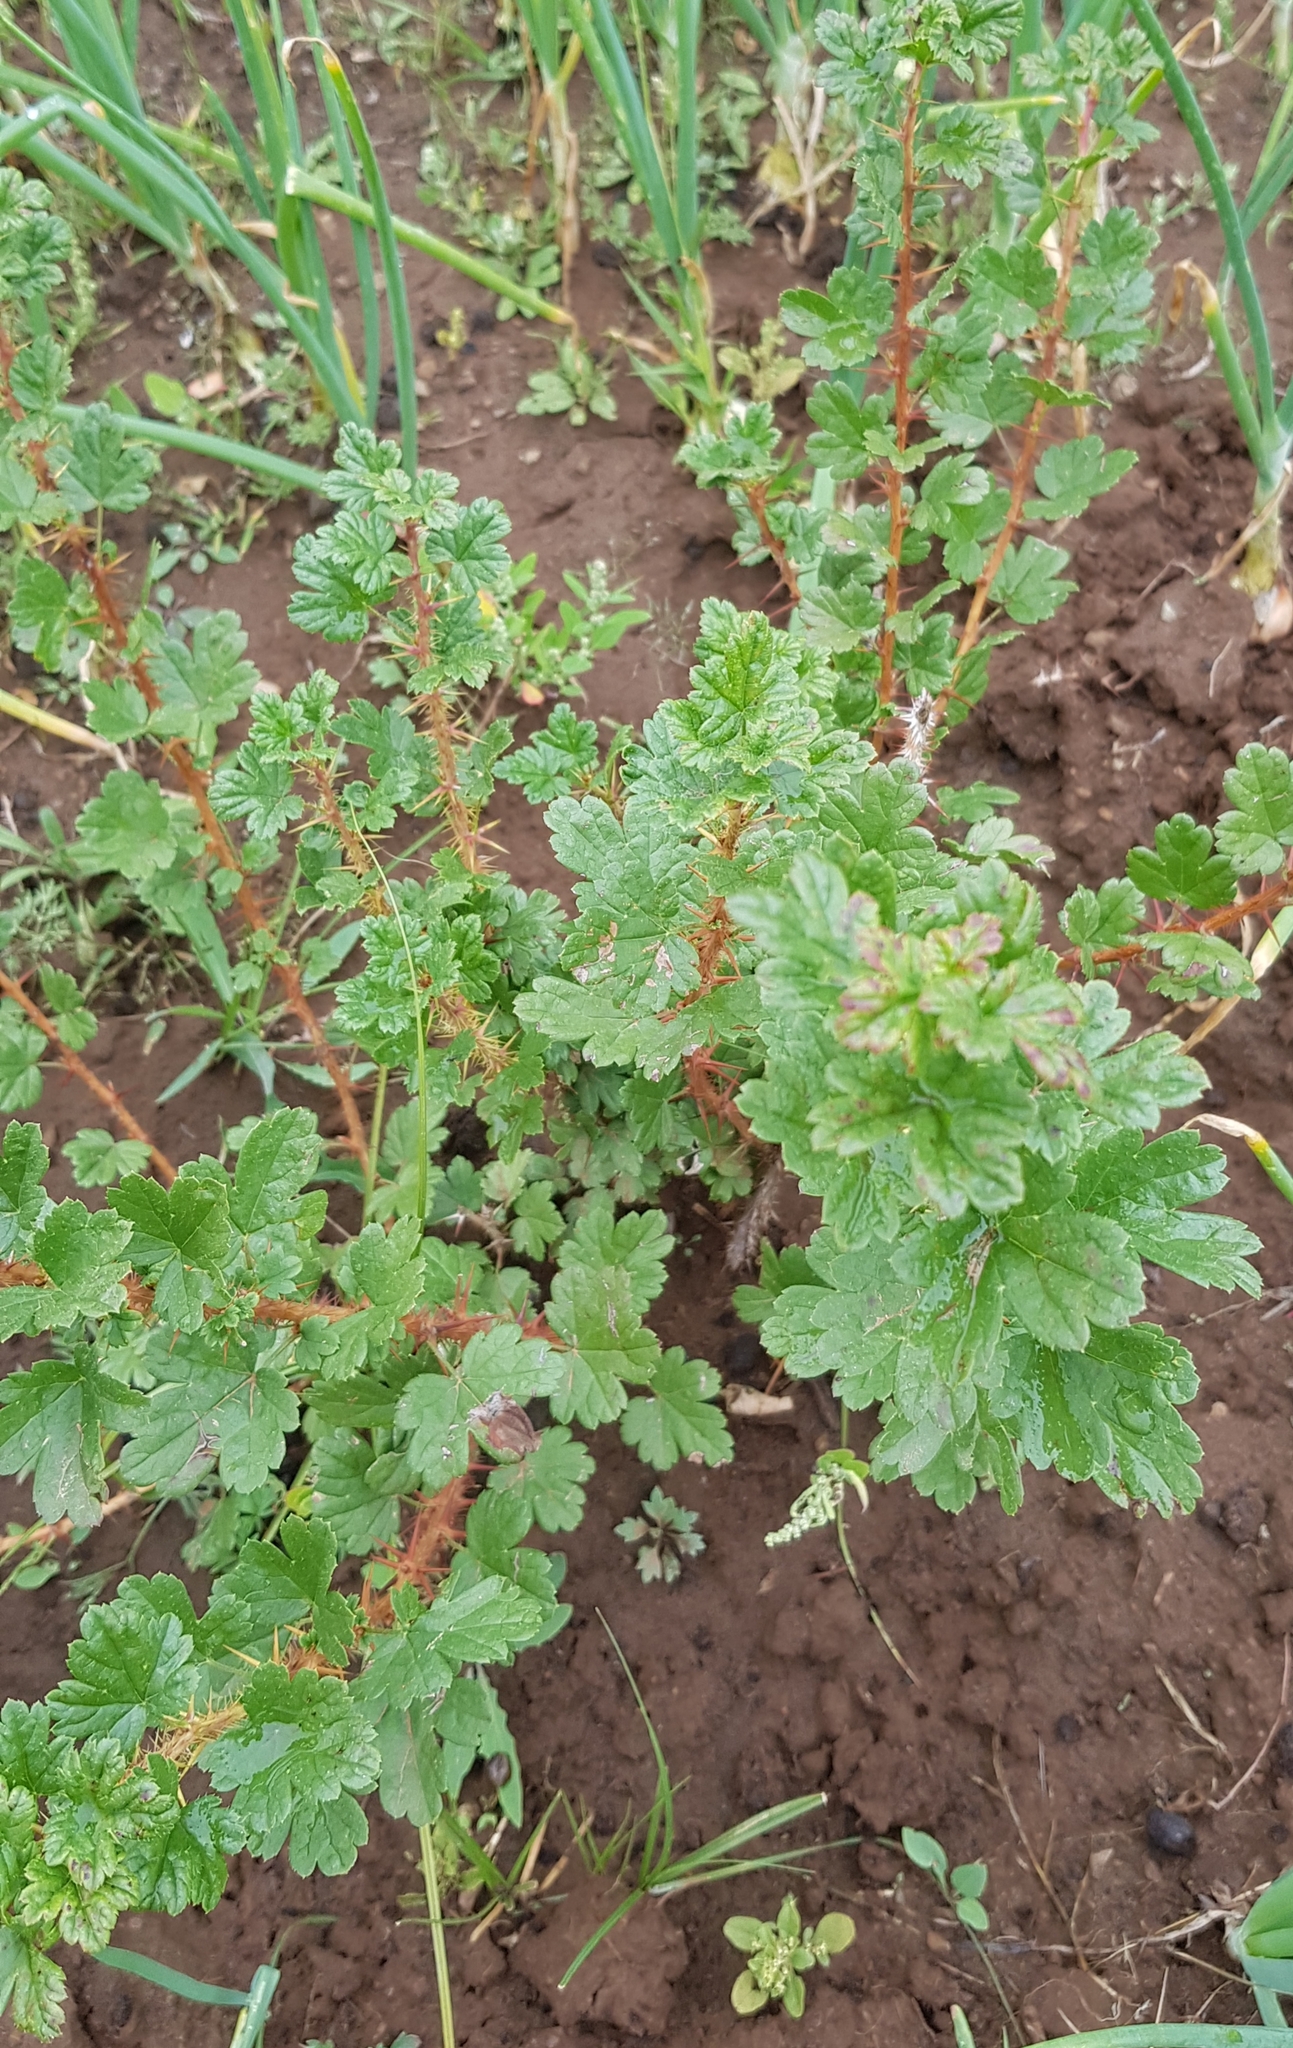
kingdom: Plantae
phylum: Tracheophyta
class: Magnoliopsida
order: Saxifragales
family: Grossulariaceae
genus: Ribes
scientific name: Ribes aciculare
